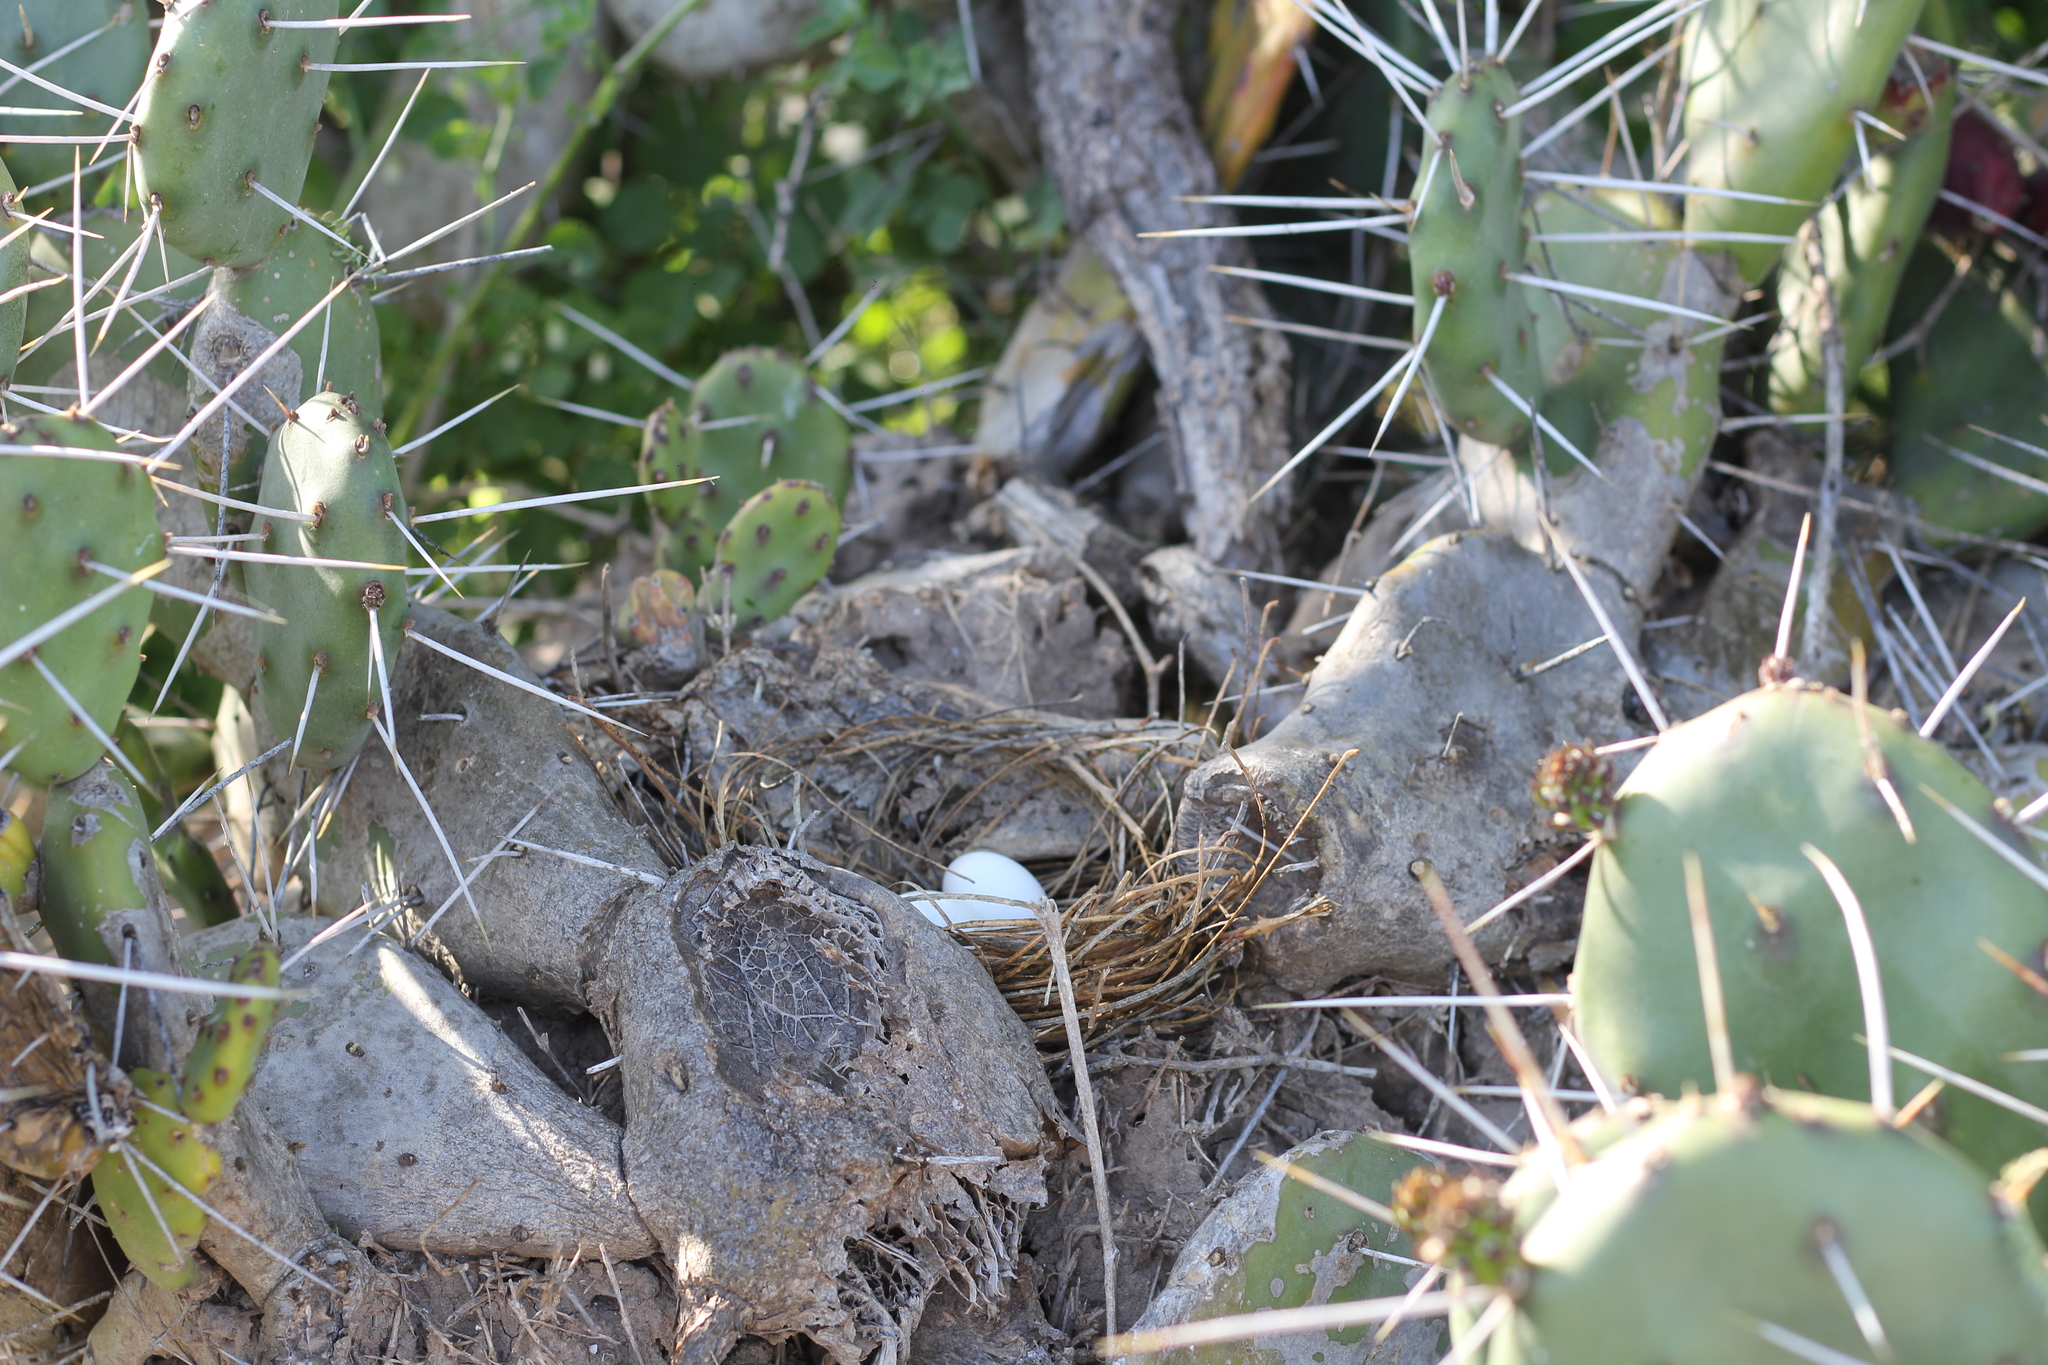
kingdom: Animalia
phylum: Chordata
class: Aves
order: Columbiformes
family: Columbidae
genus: Zenaida
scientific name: Zenaida auriculata
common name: Eared dove
